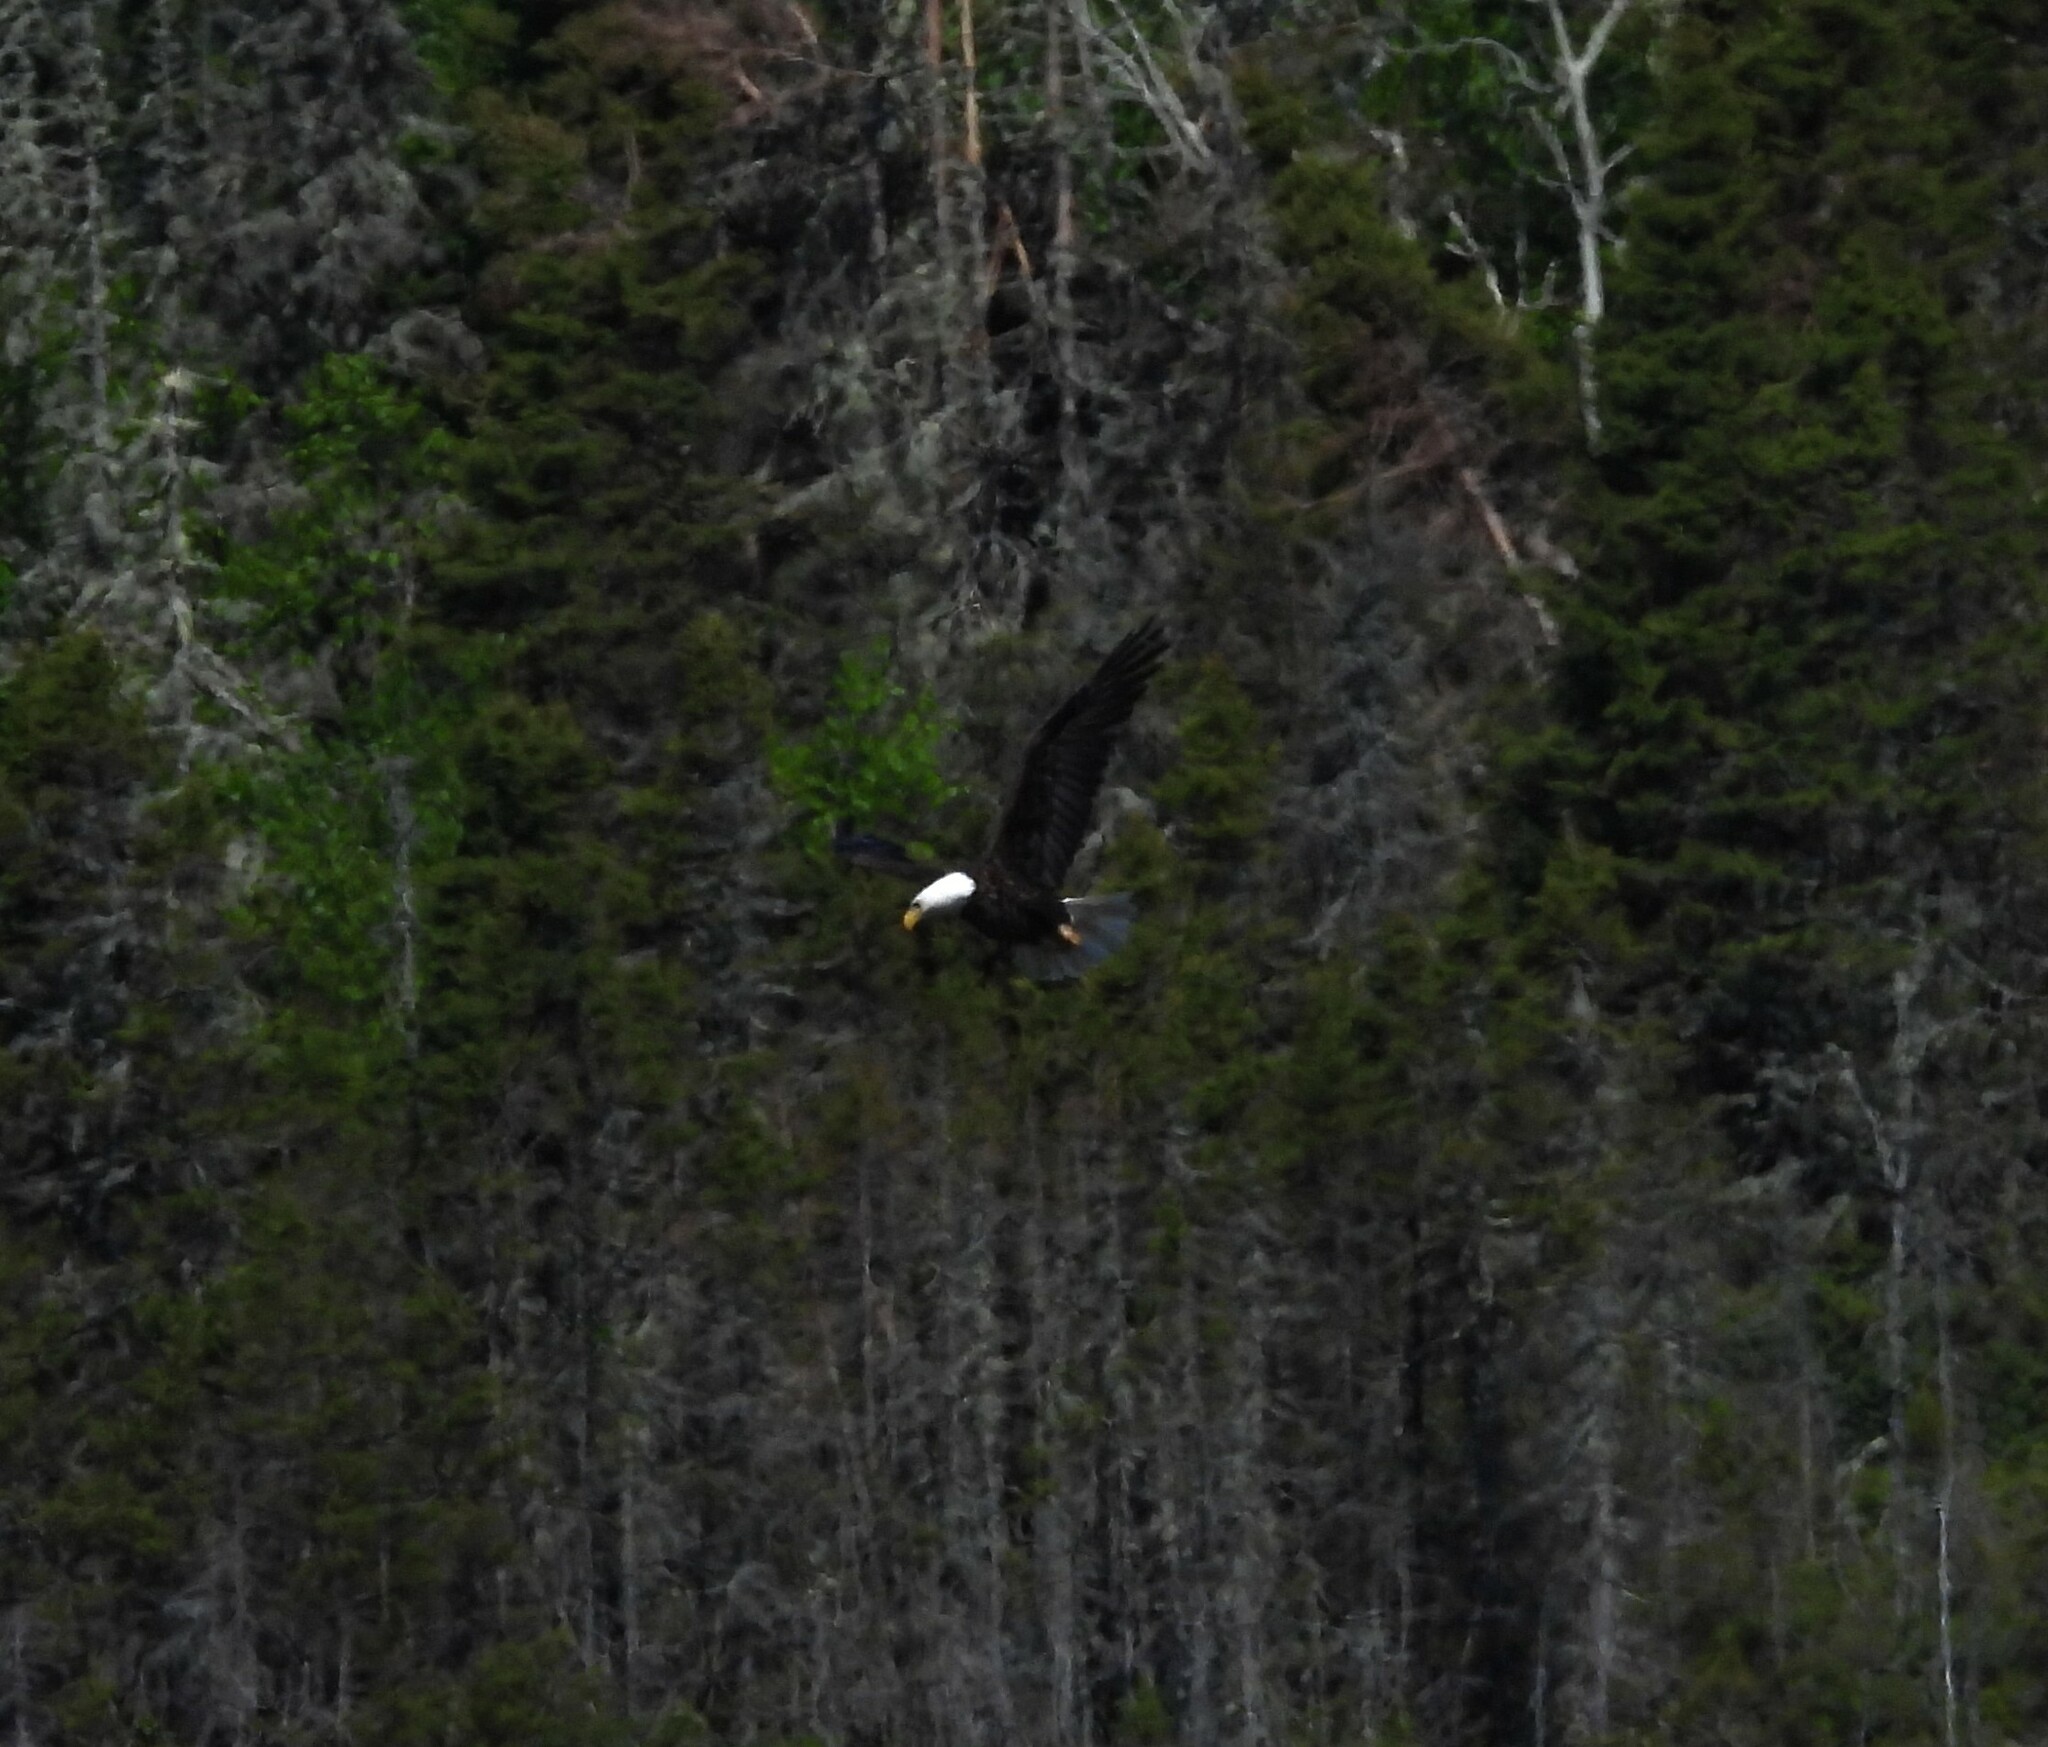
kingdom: Animalia
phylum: Chordata
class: Aves
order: Accipitriformes
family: Accipitridae
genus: Haliaeetus
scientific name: Haliaeetus leucocephalus
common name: Bald eagle
